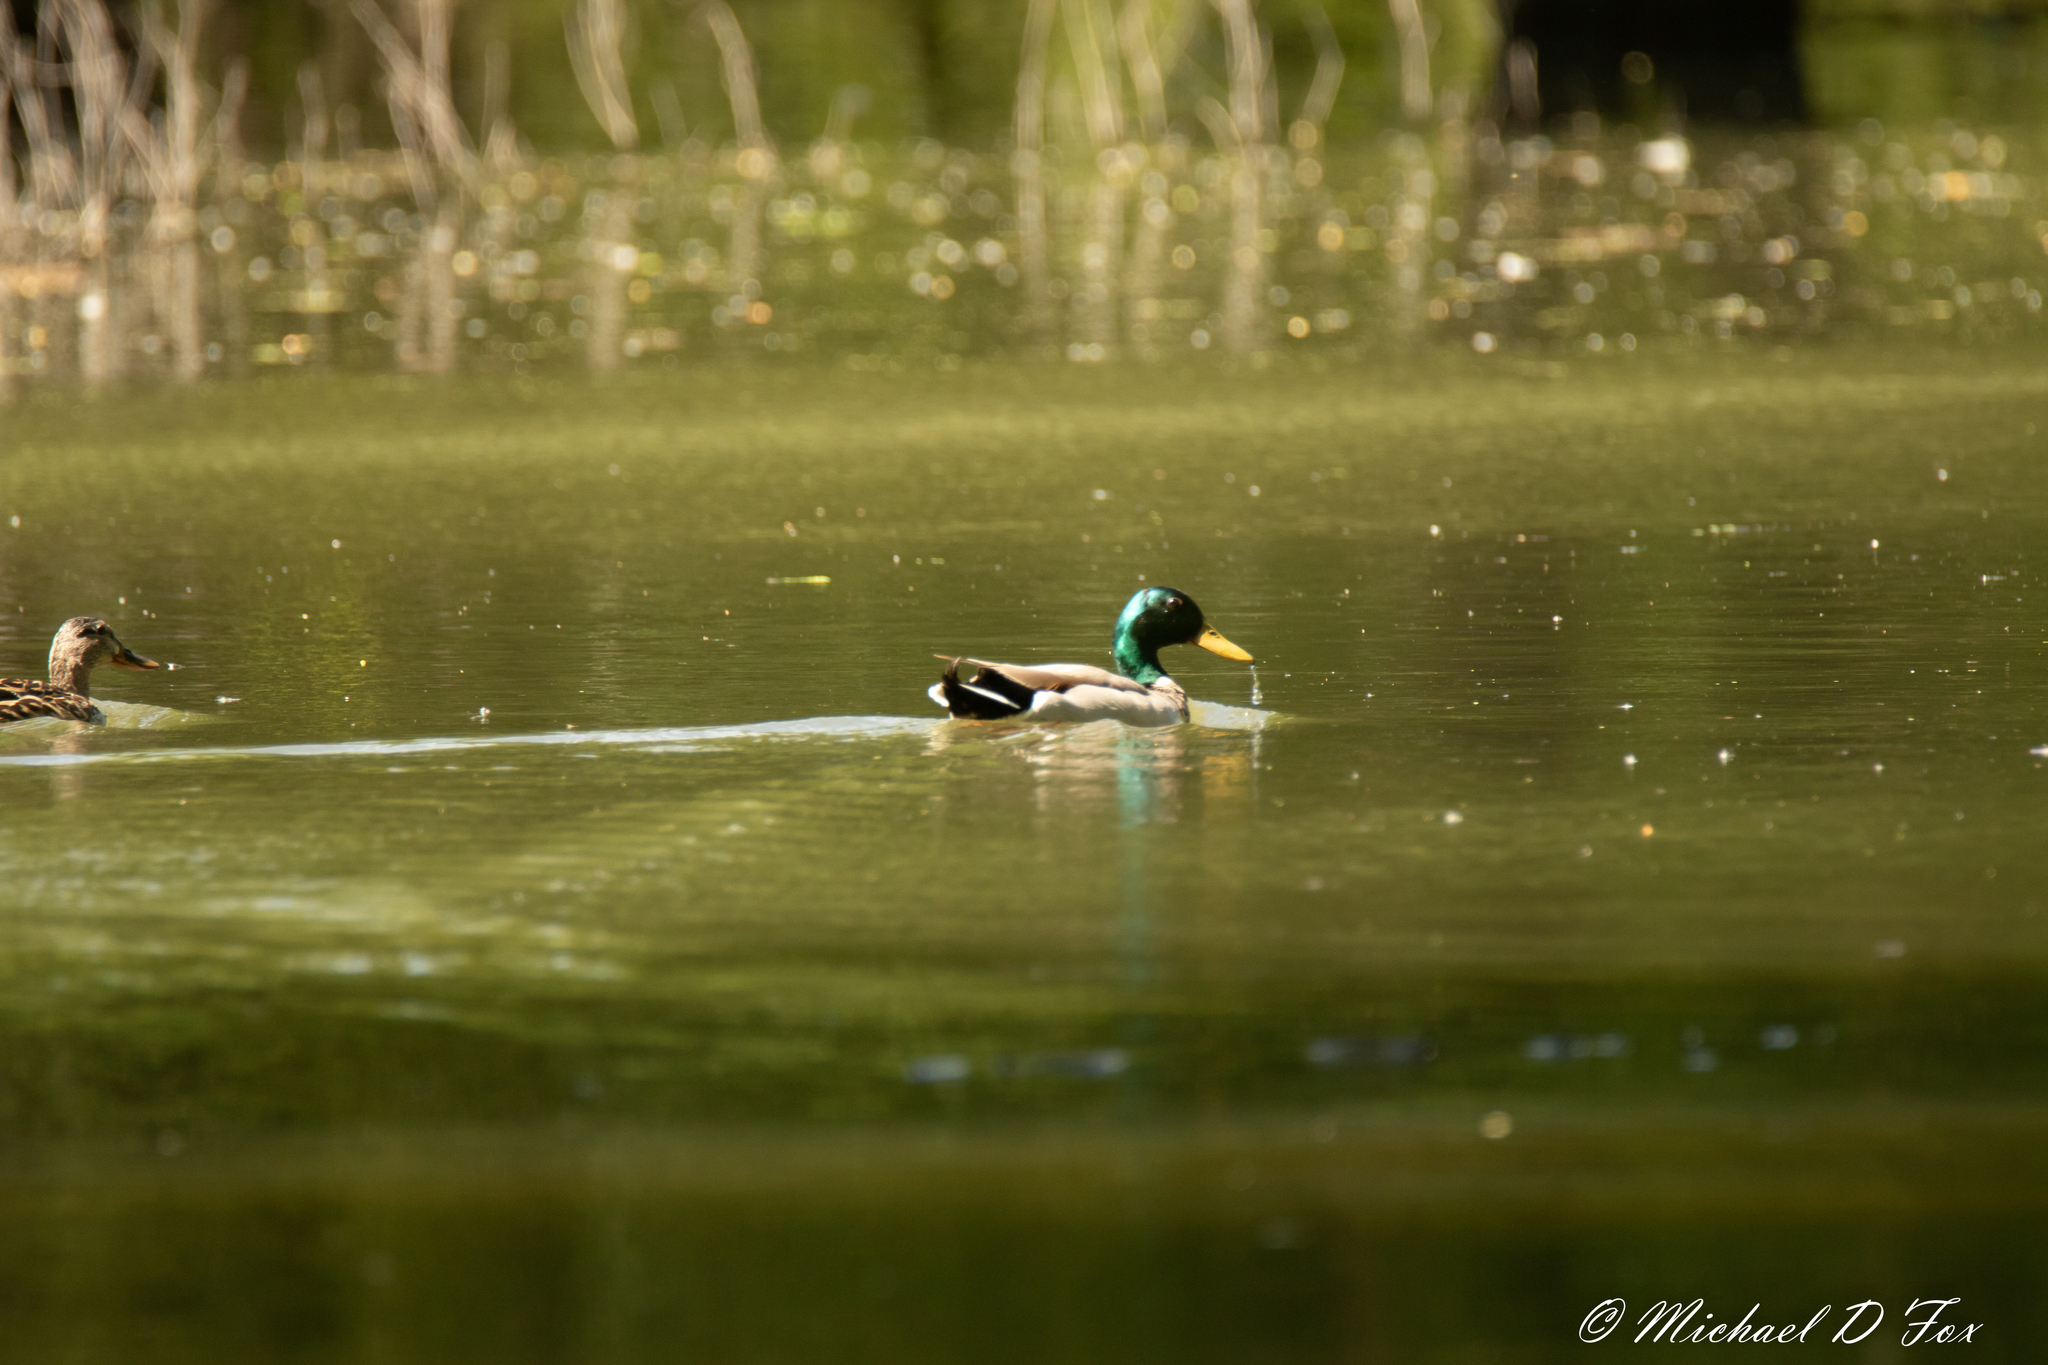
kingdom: Animalia
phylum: Chordata
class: Aves
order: Anseriformes
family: Anatidae
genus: Anas
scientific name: Anas platyrhynchos
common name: Mallard
